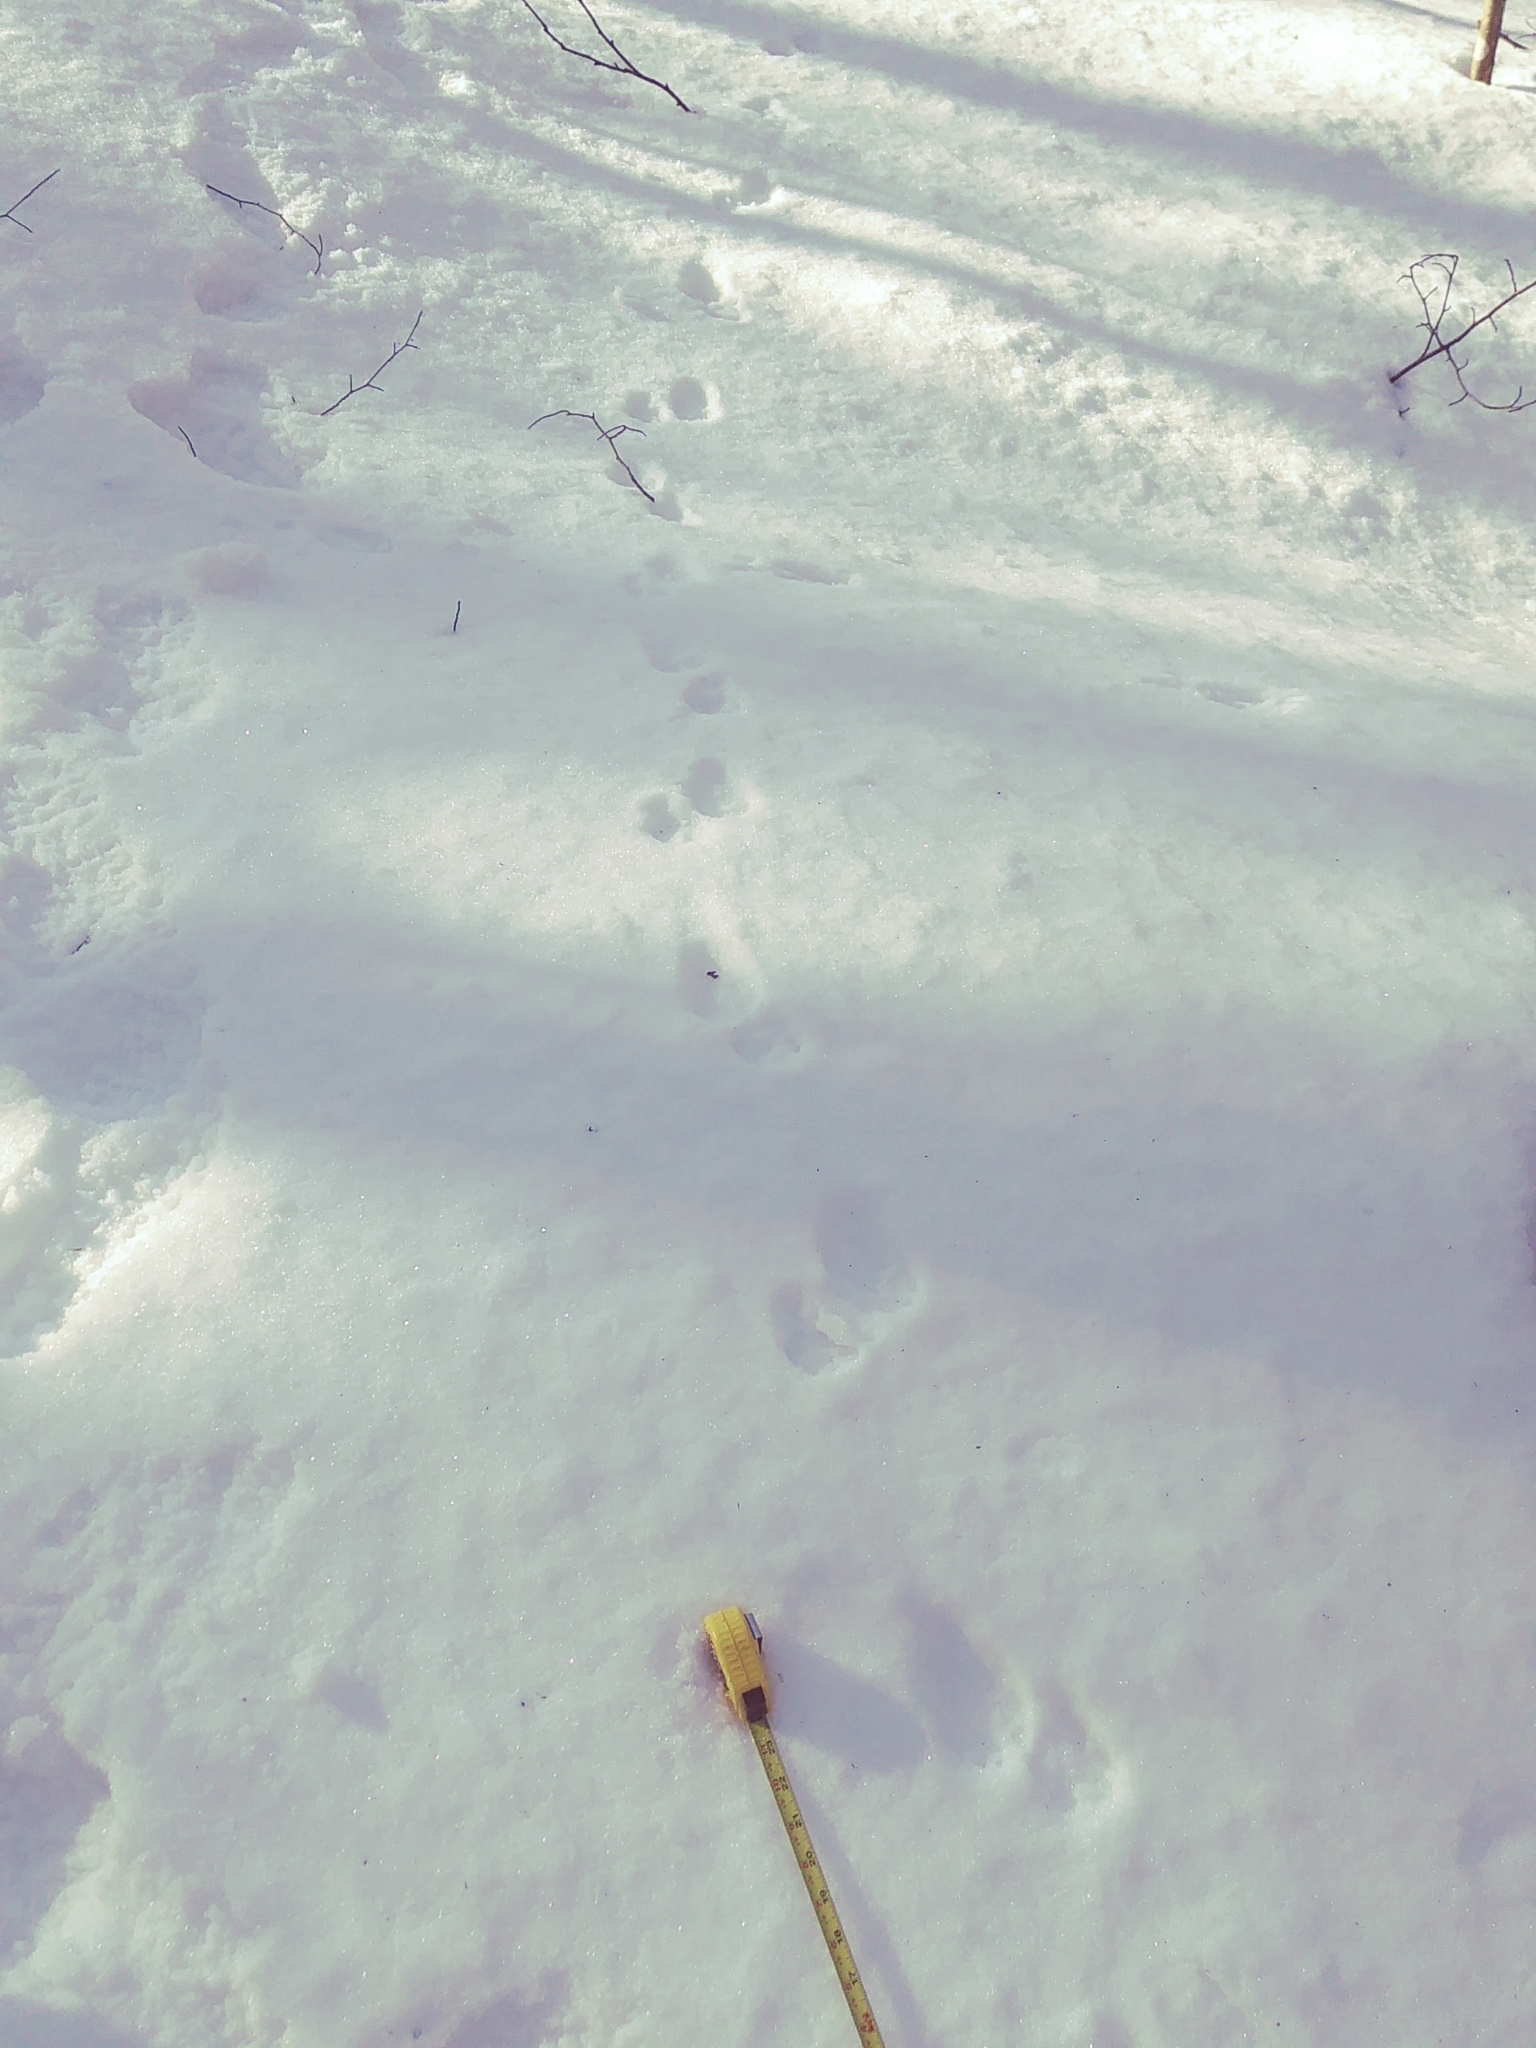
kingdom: Animalia
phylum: Chordata
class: Mammalia
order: Carnivora
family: Procyonidae
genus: Procyon
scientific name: Procyon lotor
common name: Raccoon
